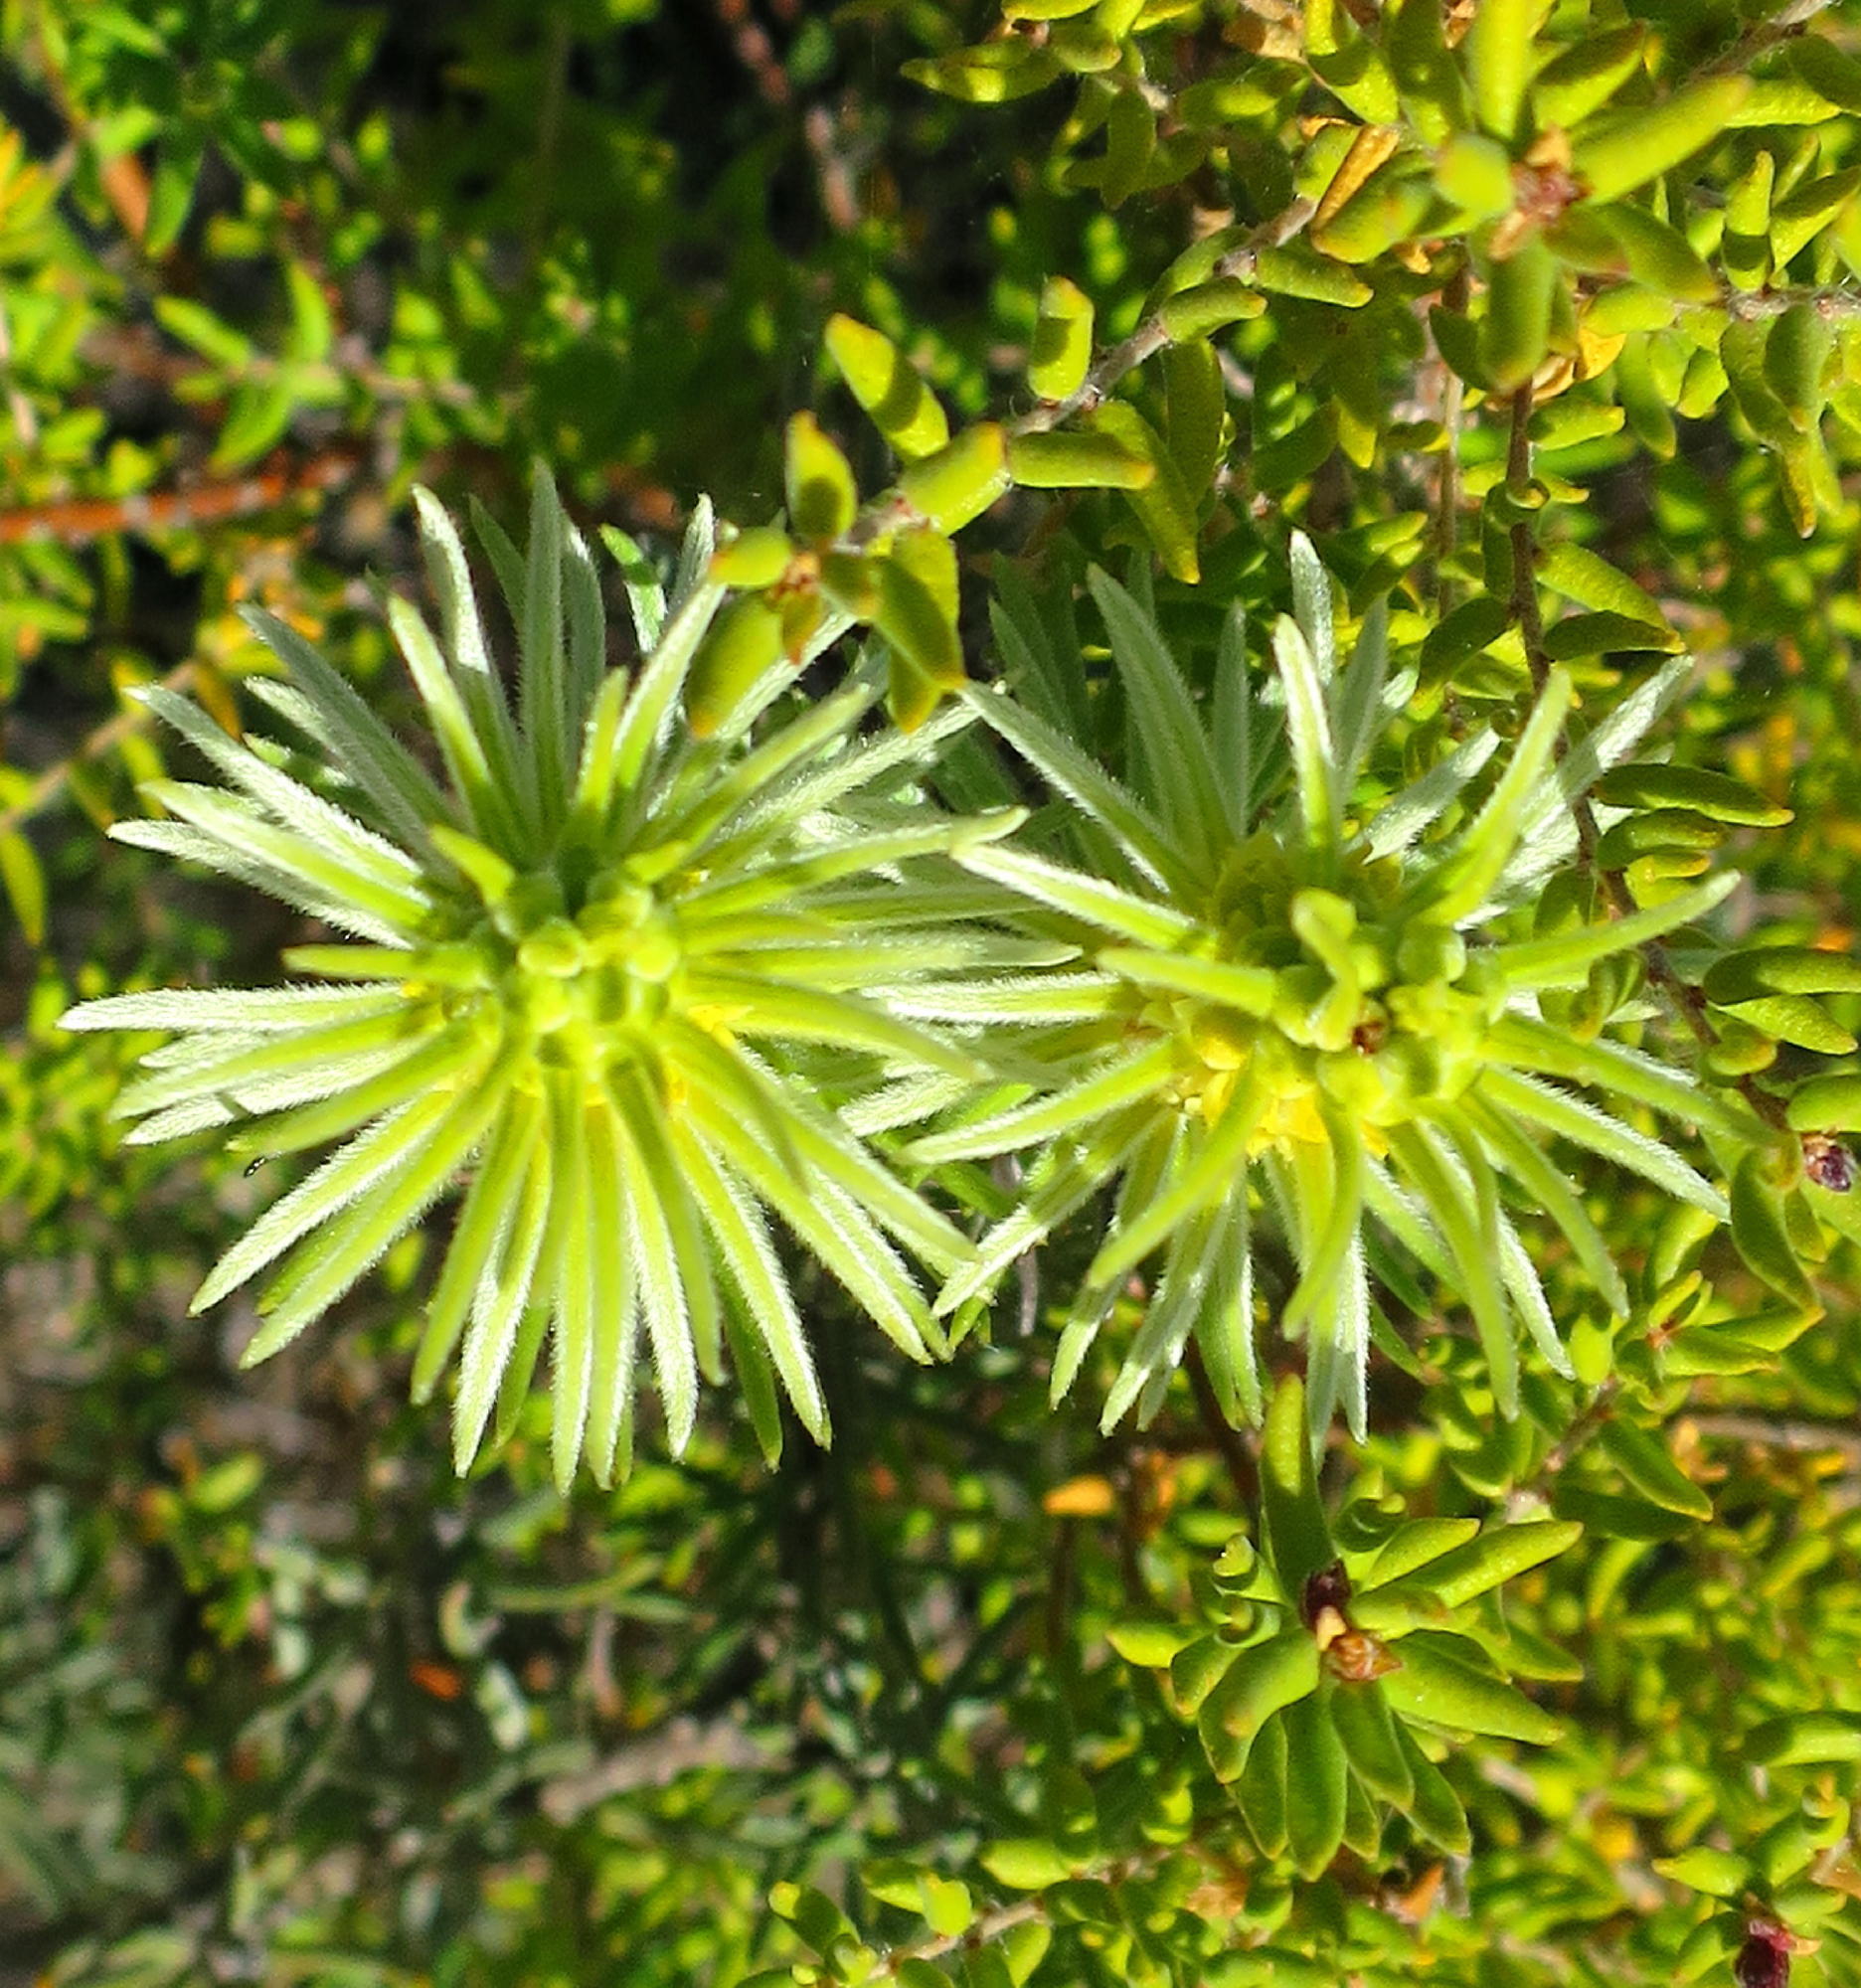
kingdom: Plantae
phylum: Tracheophyta
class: Magnoliopsida
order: Rosales
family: Rhamnaceae
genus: Phylica
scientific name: Phylica velutina
